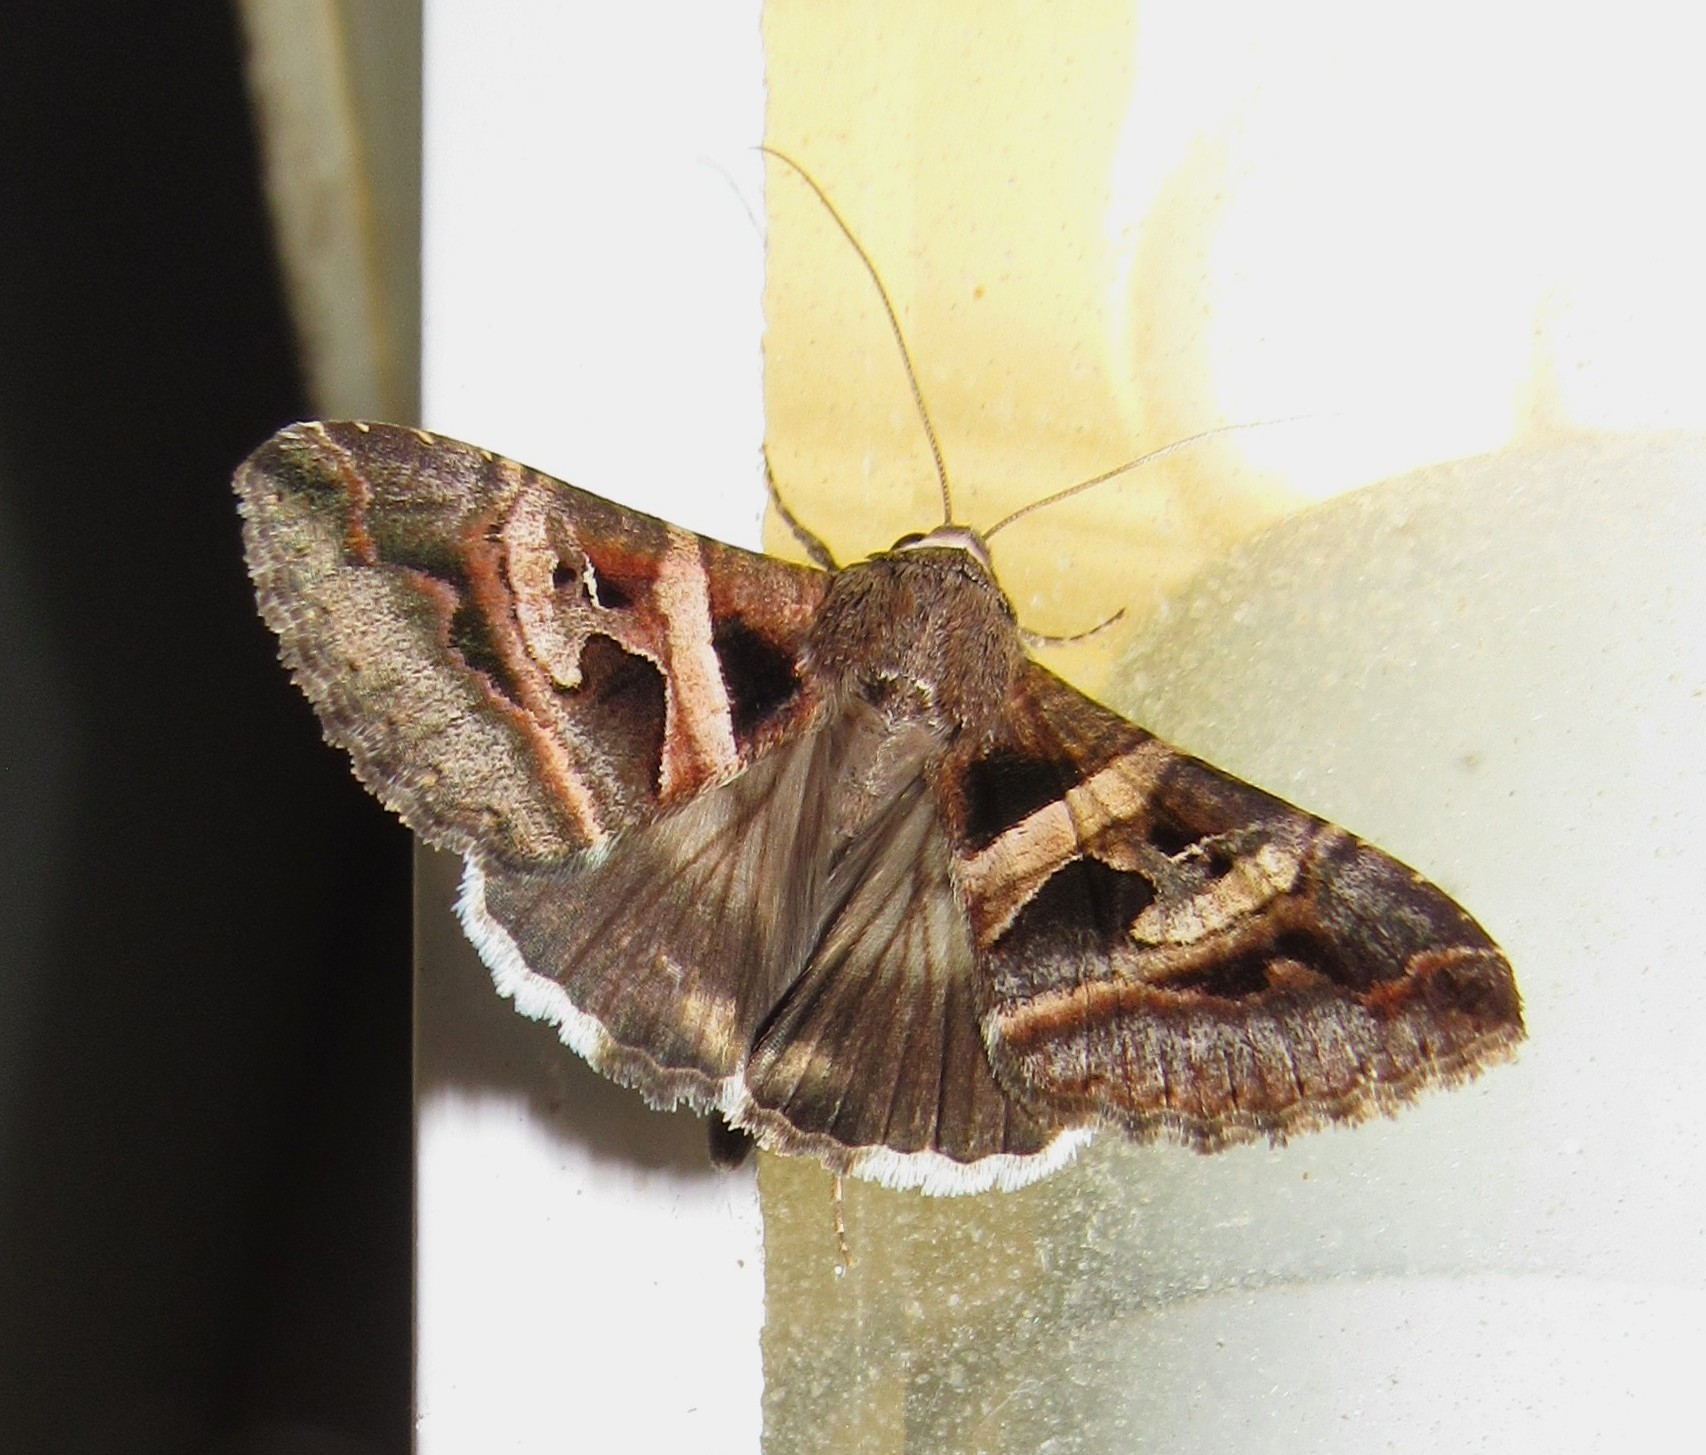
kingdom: Animalia
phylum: Arthropoda
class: Insecta
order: Lepidoptera
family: Erebidae
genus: Melipotis
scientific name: Melipotis perpendicularis
